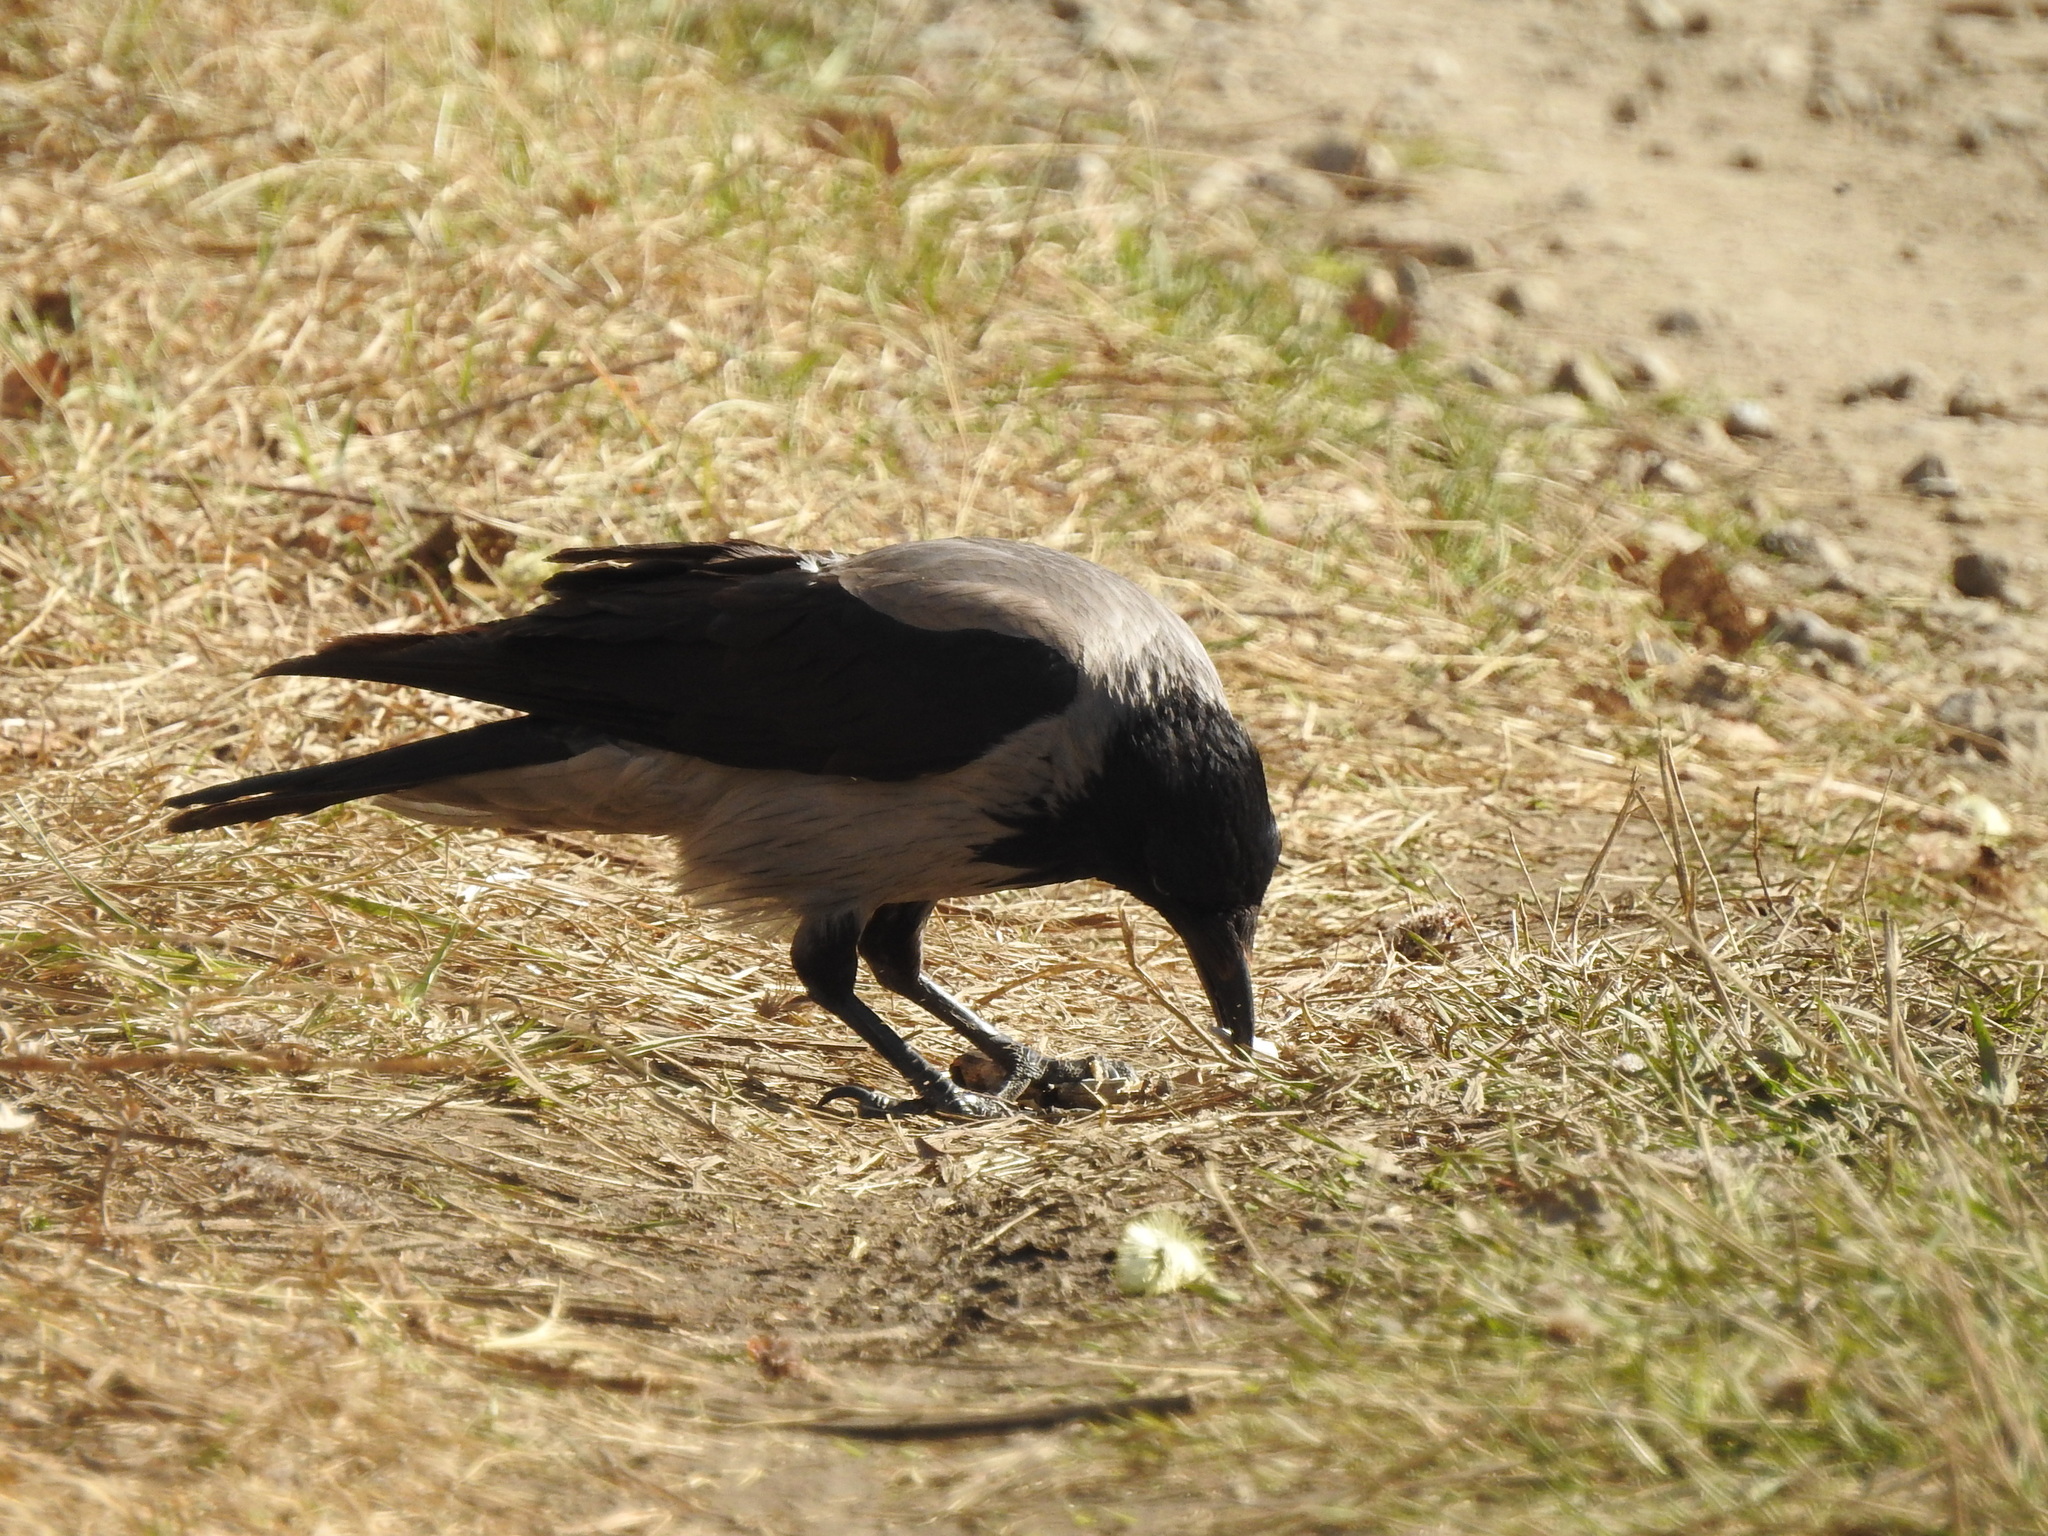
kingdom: Animalia
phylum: Chordata
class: Aves
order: Passeriformes
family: Corvidae
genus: Corvus
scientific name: Corvus cornix
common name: Hooded crow
